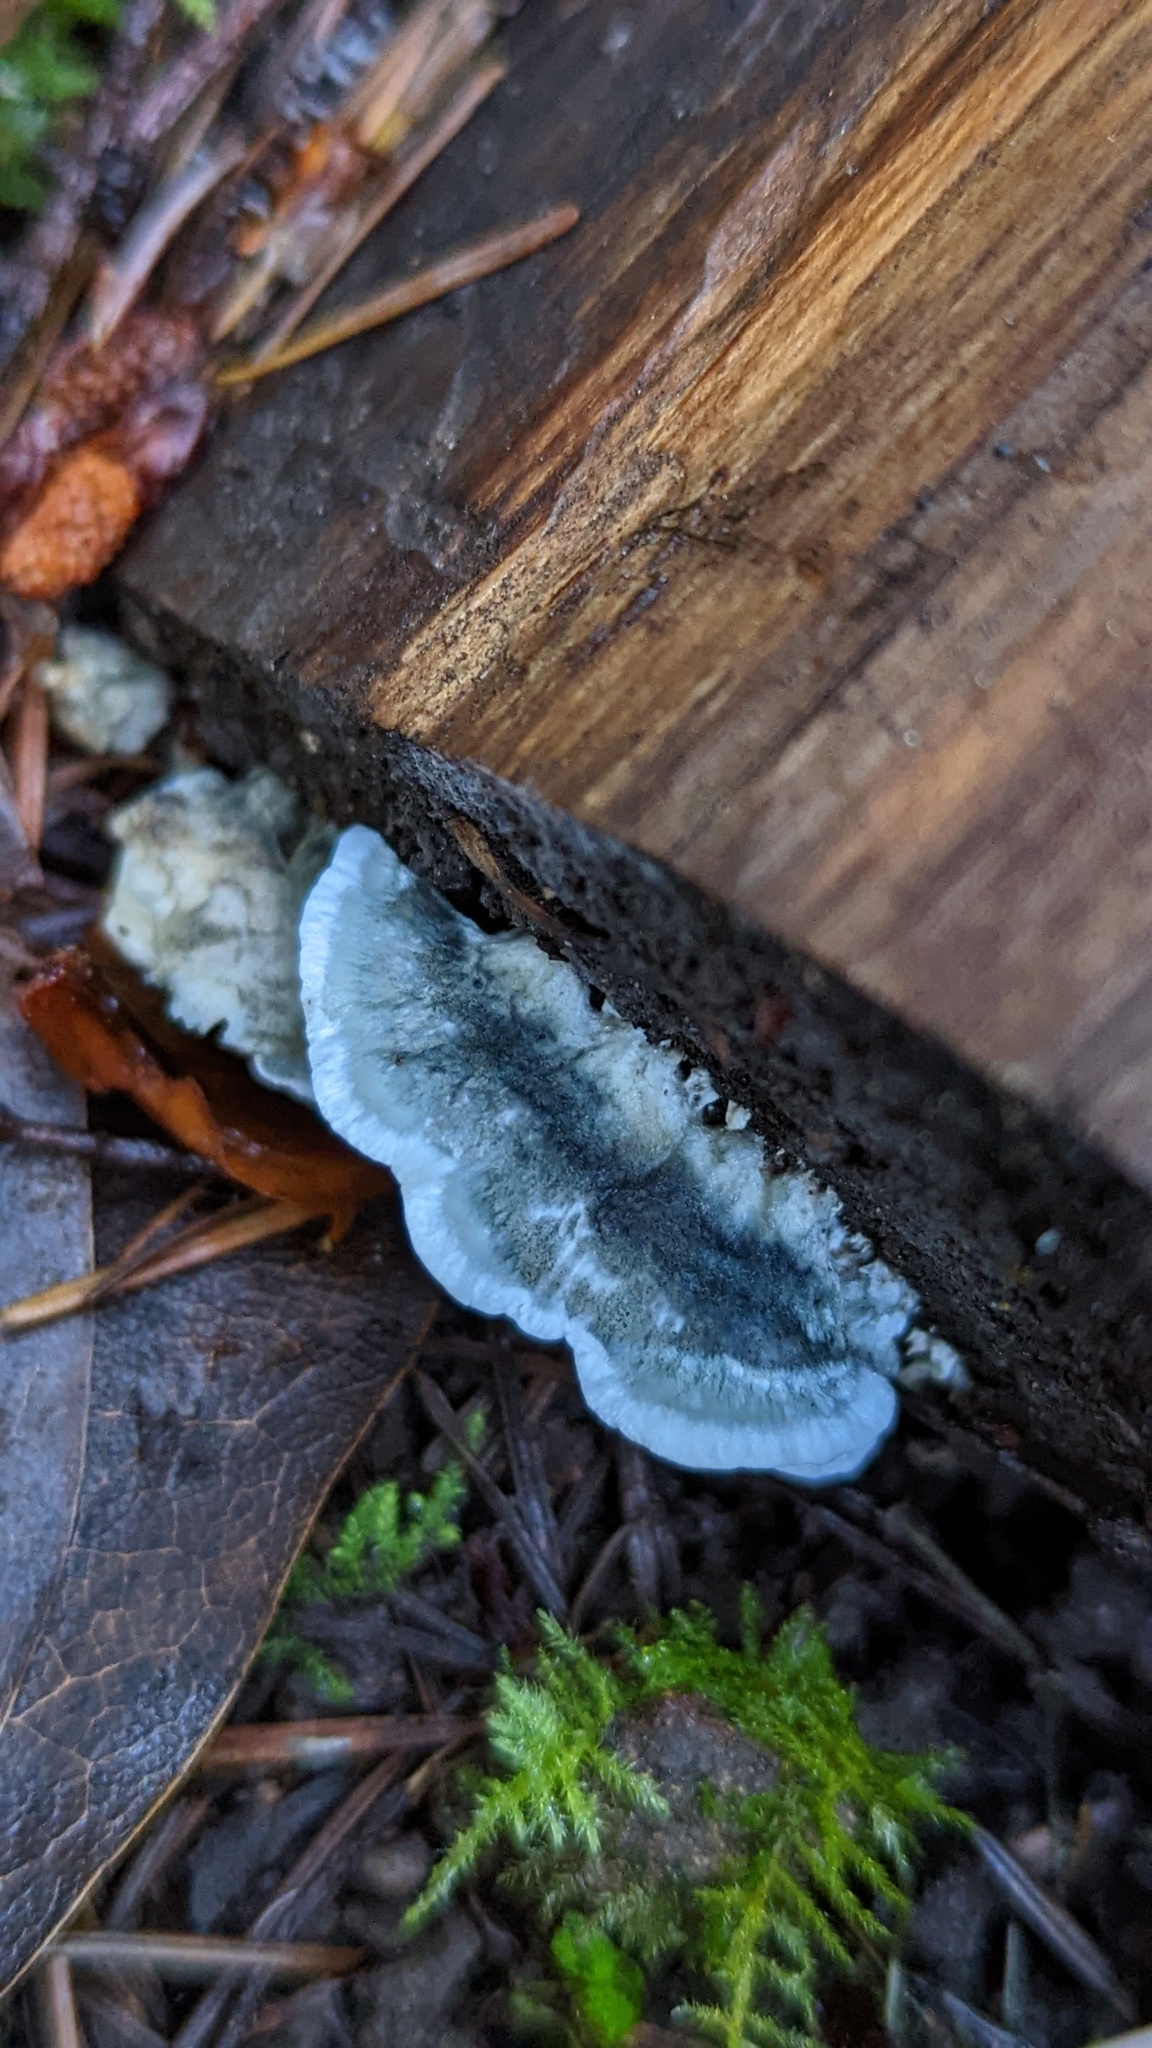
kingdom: Fungi
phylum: Basidiomycota
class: Agaricomycetes
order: Polyporales
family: Polyporaceae
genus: Cyanosporus
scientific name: Cyanosporus caesius
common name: Blue cheese polypore
